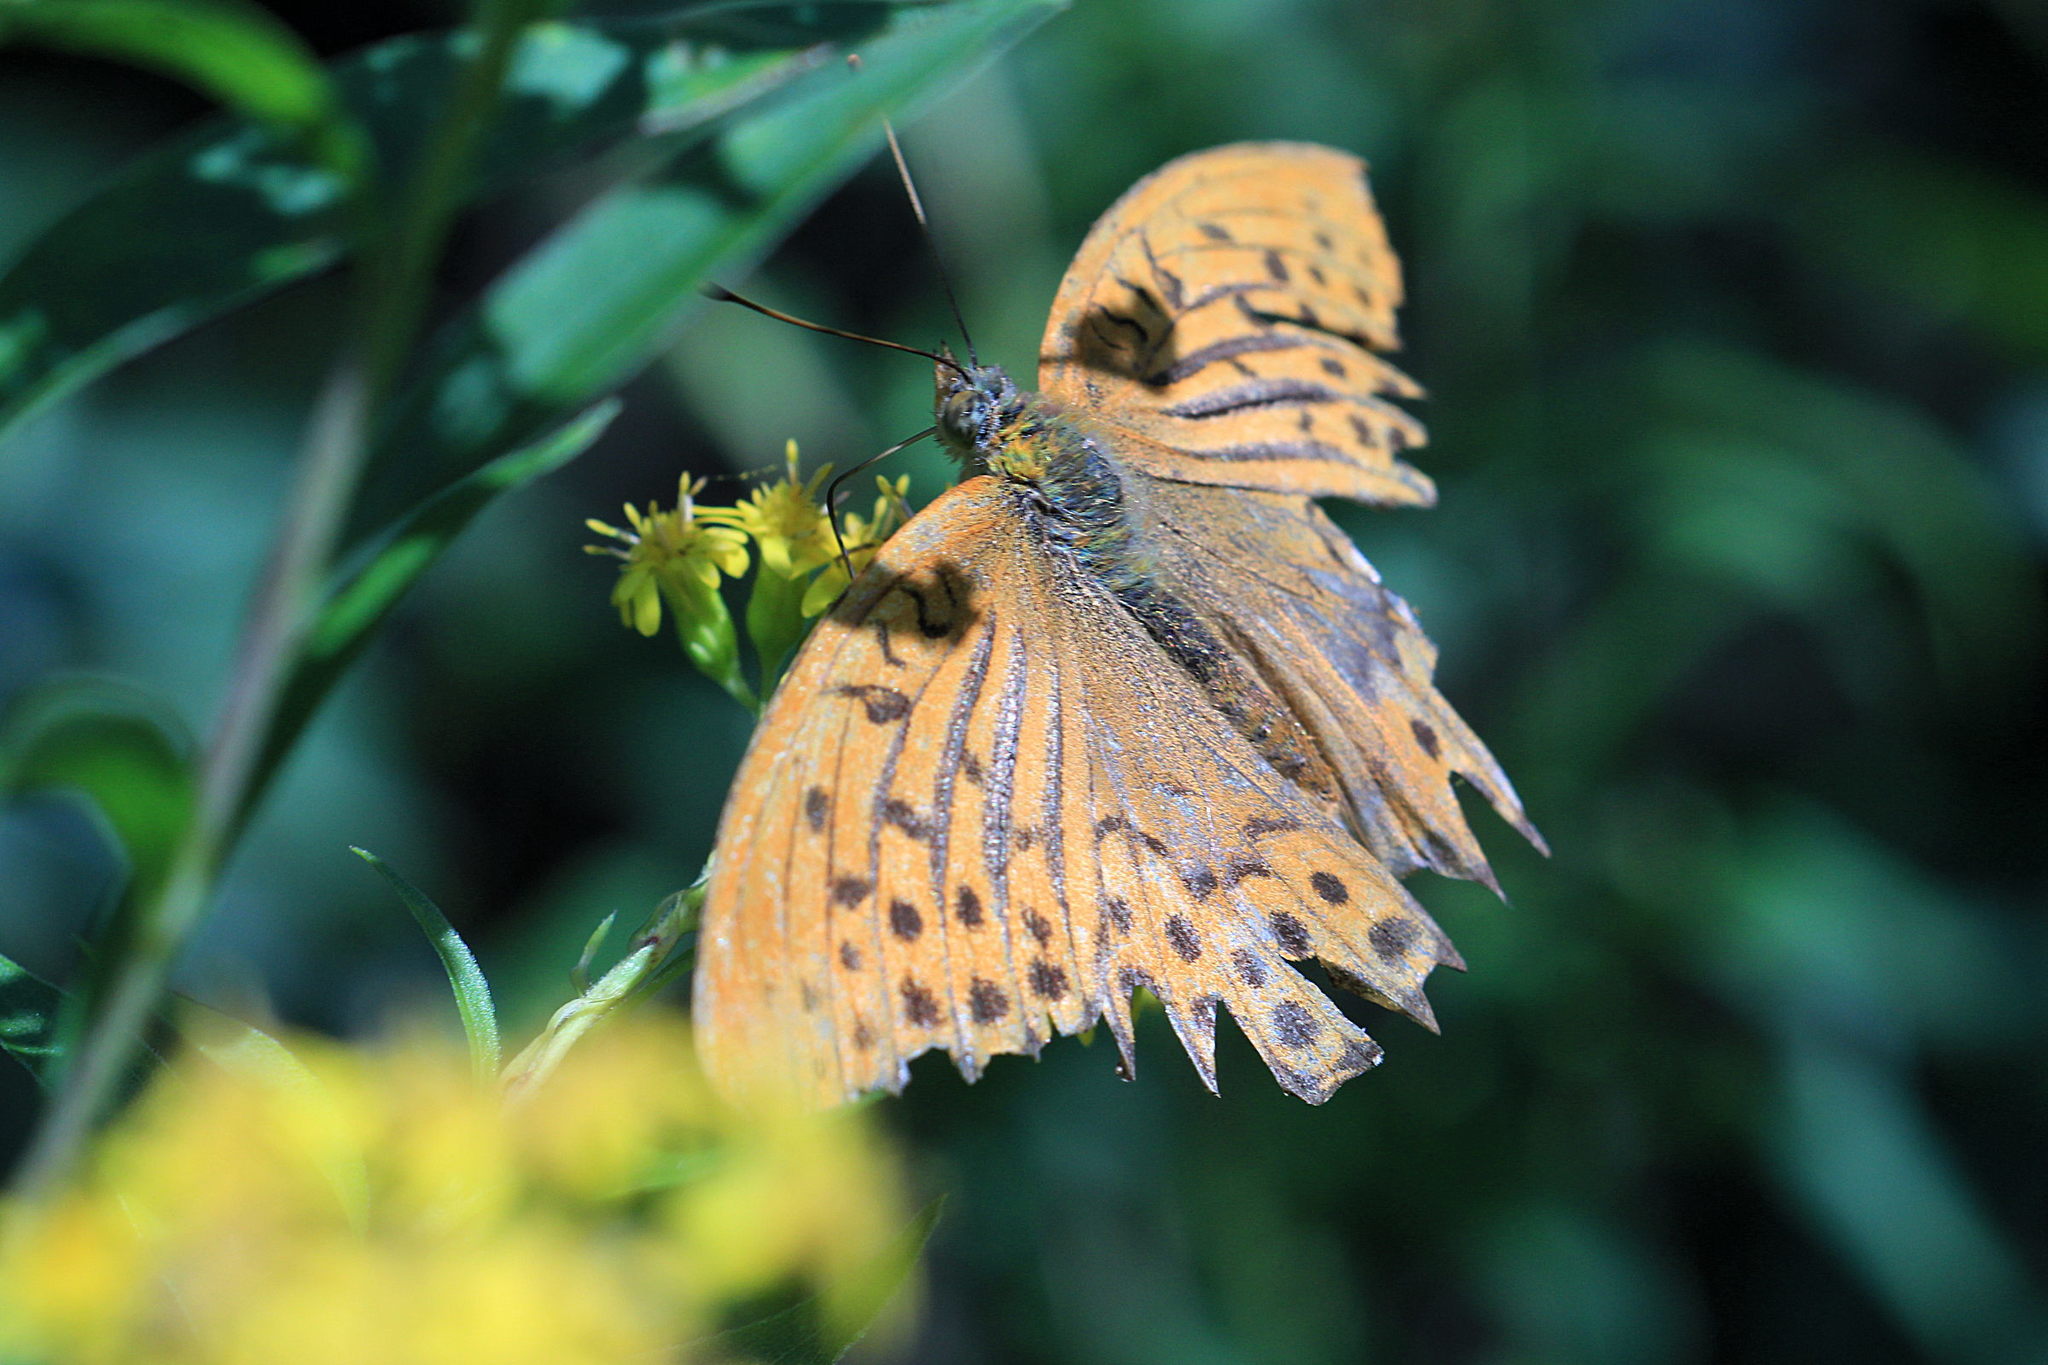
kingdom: Animalia
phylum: Arthropoda
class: Insecta
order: Lepidoptera
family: Nymphalidae
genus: Argynnis
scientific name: Argynnis paphia
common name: Silver-washed fritillary
